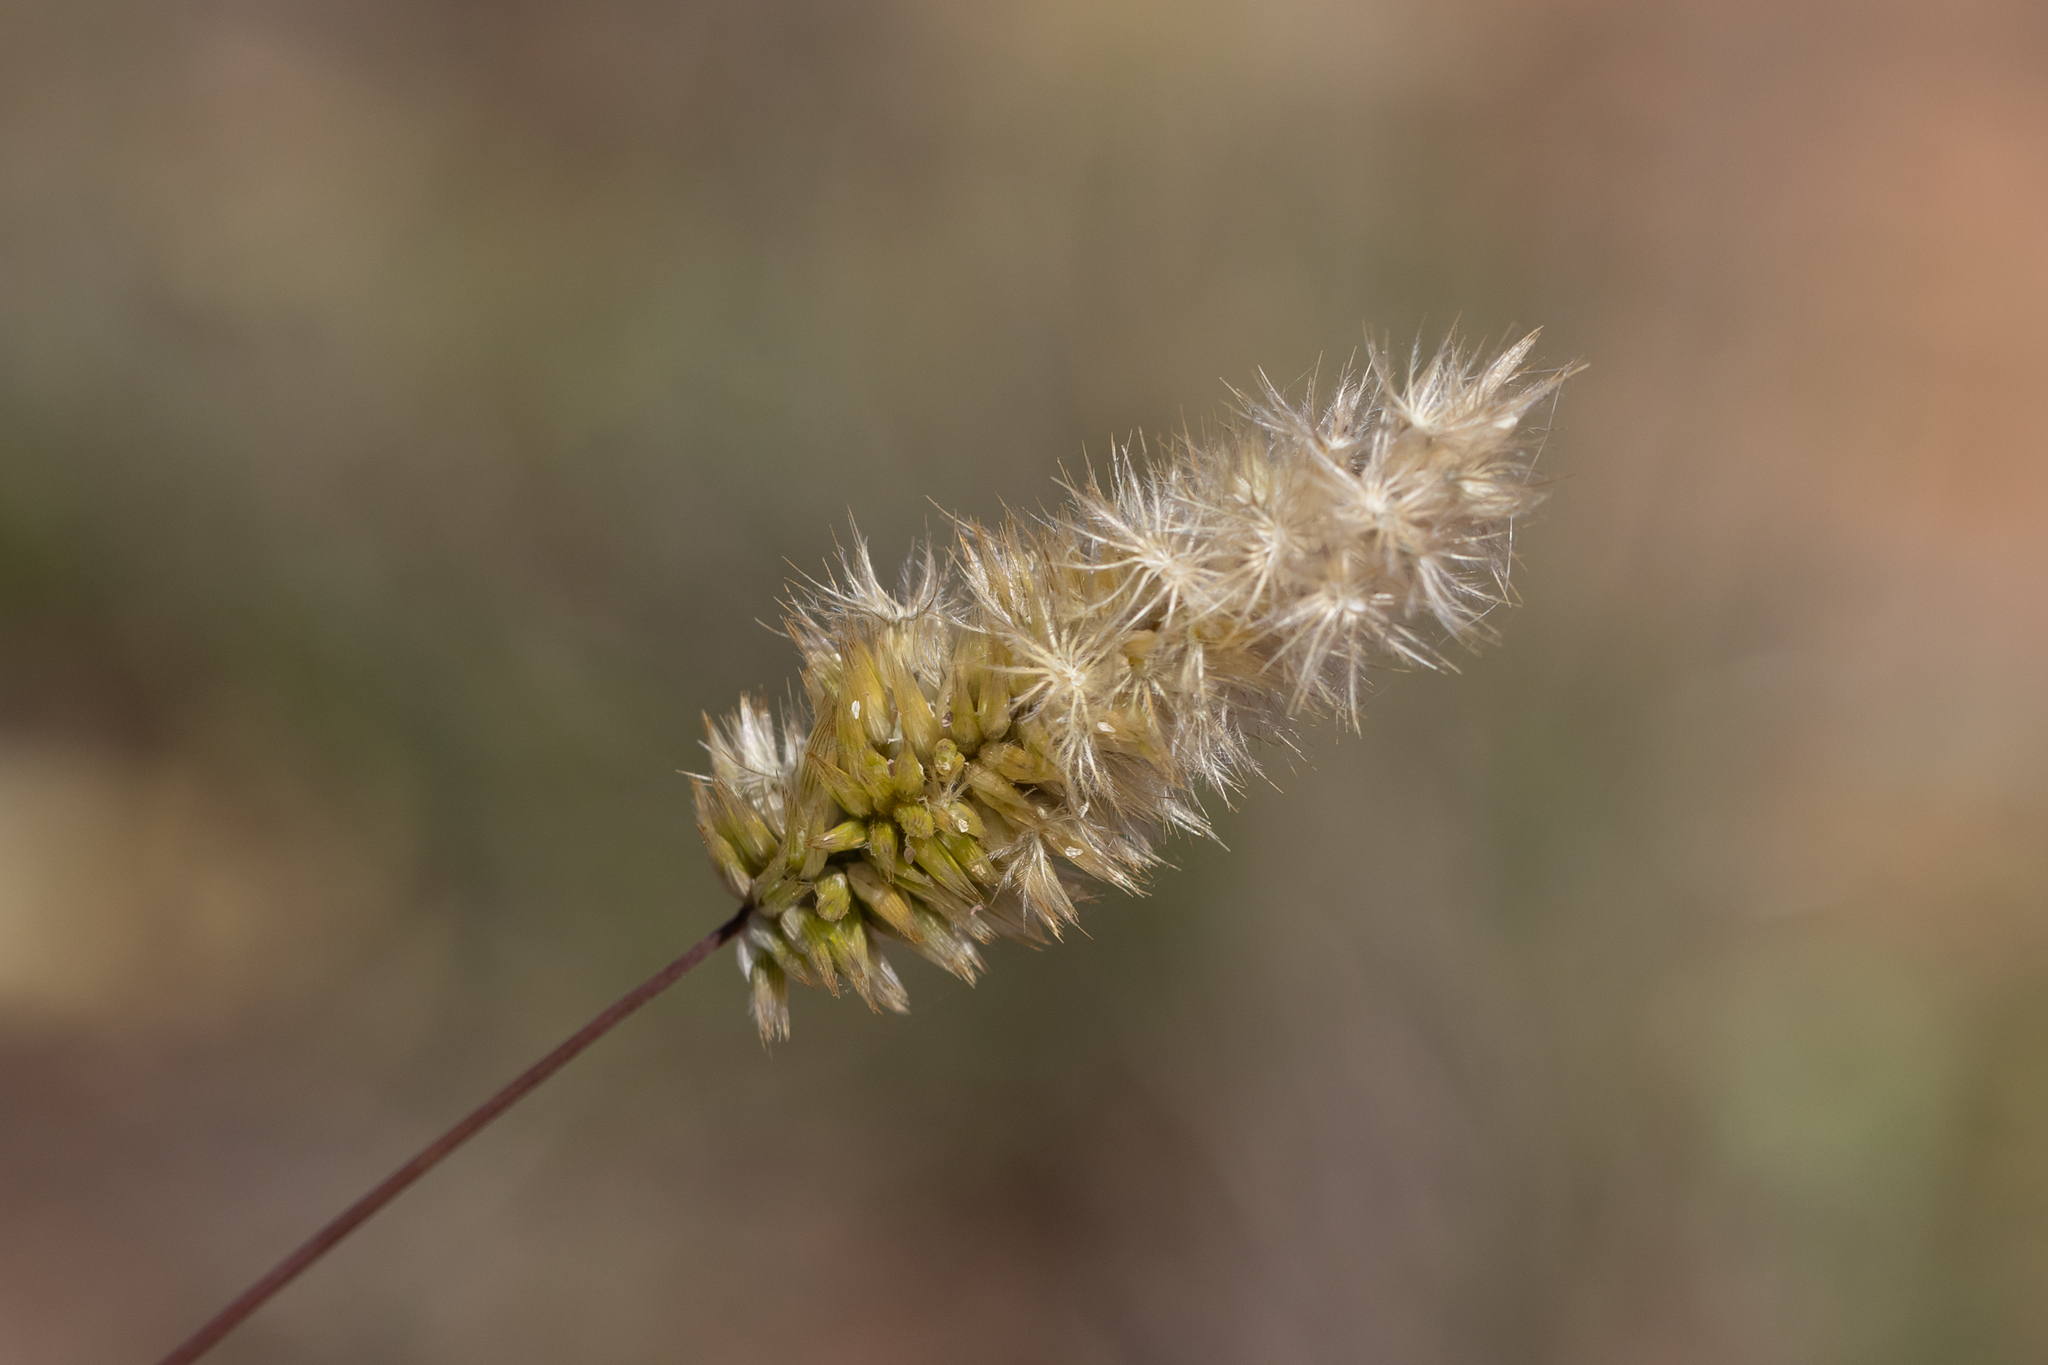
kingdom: Plantae
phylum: Tracheophyta
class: Liliopsida
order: Poales
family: Poaceae
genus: Enneapogon
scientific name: Enneapogon nigricans
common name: Pappus grass
